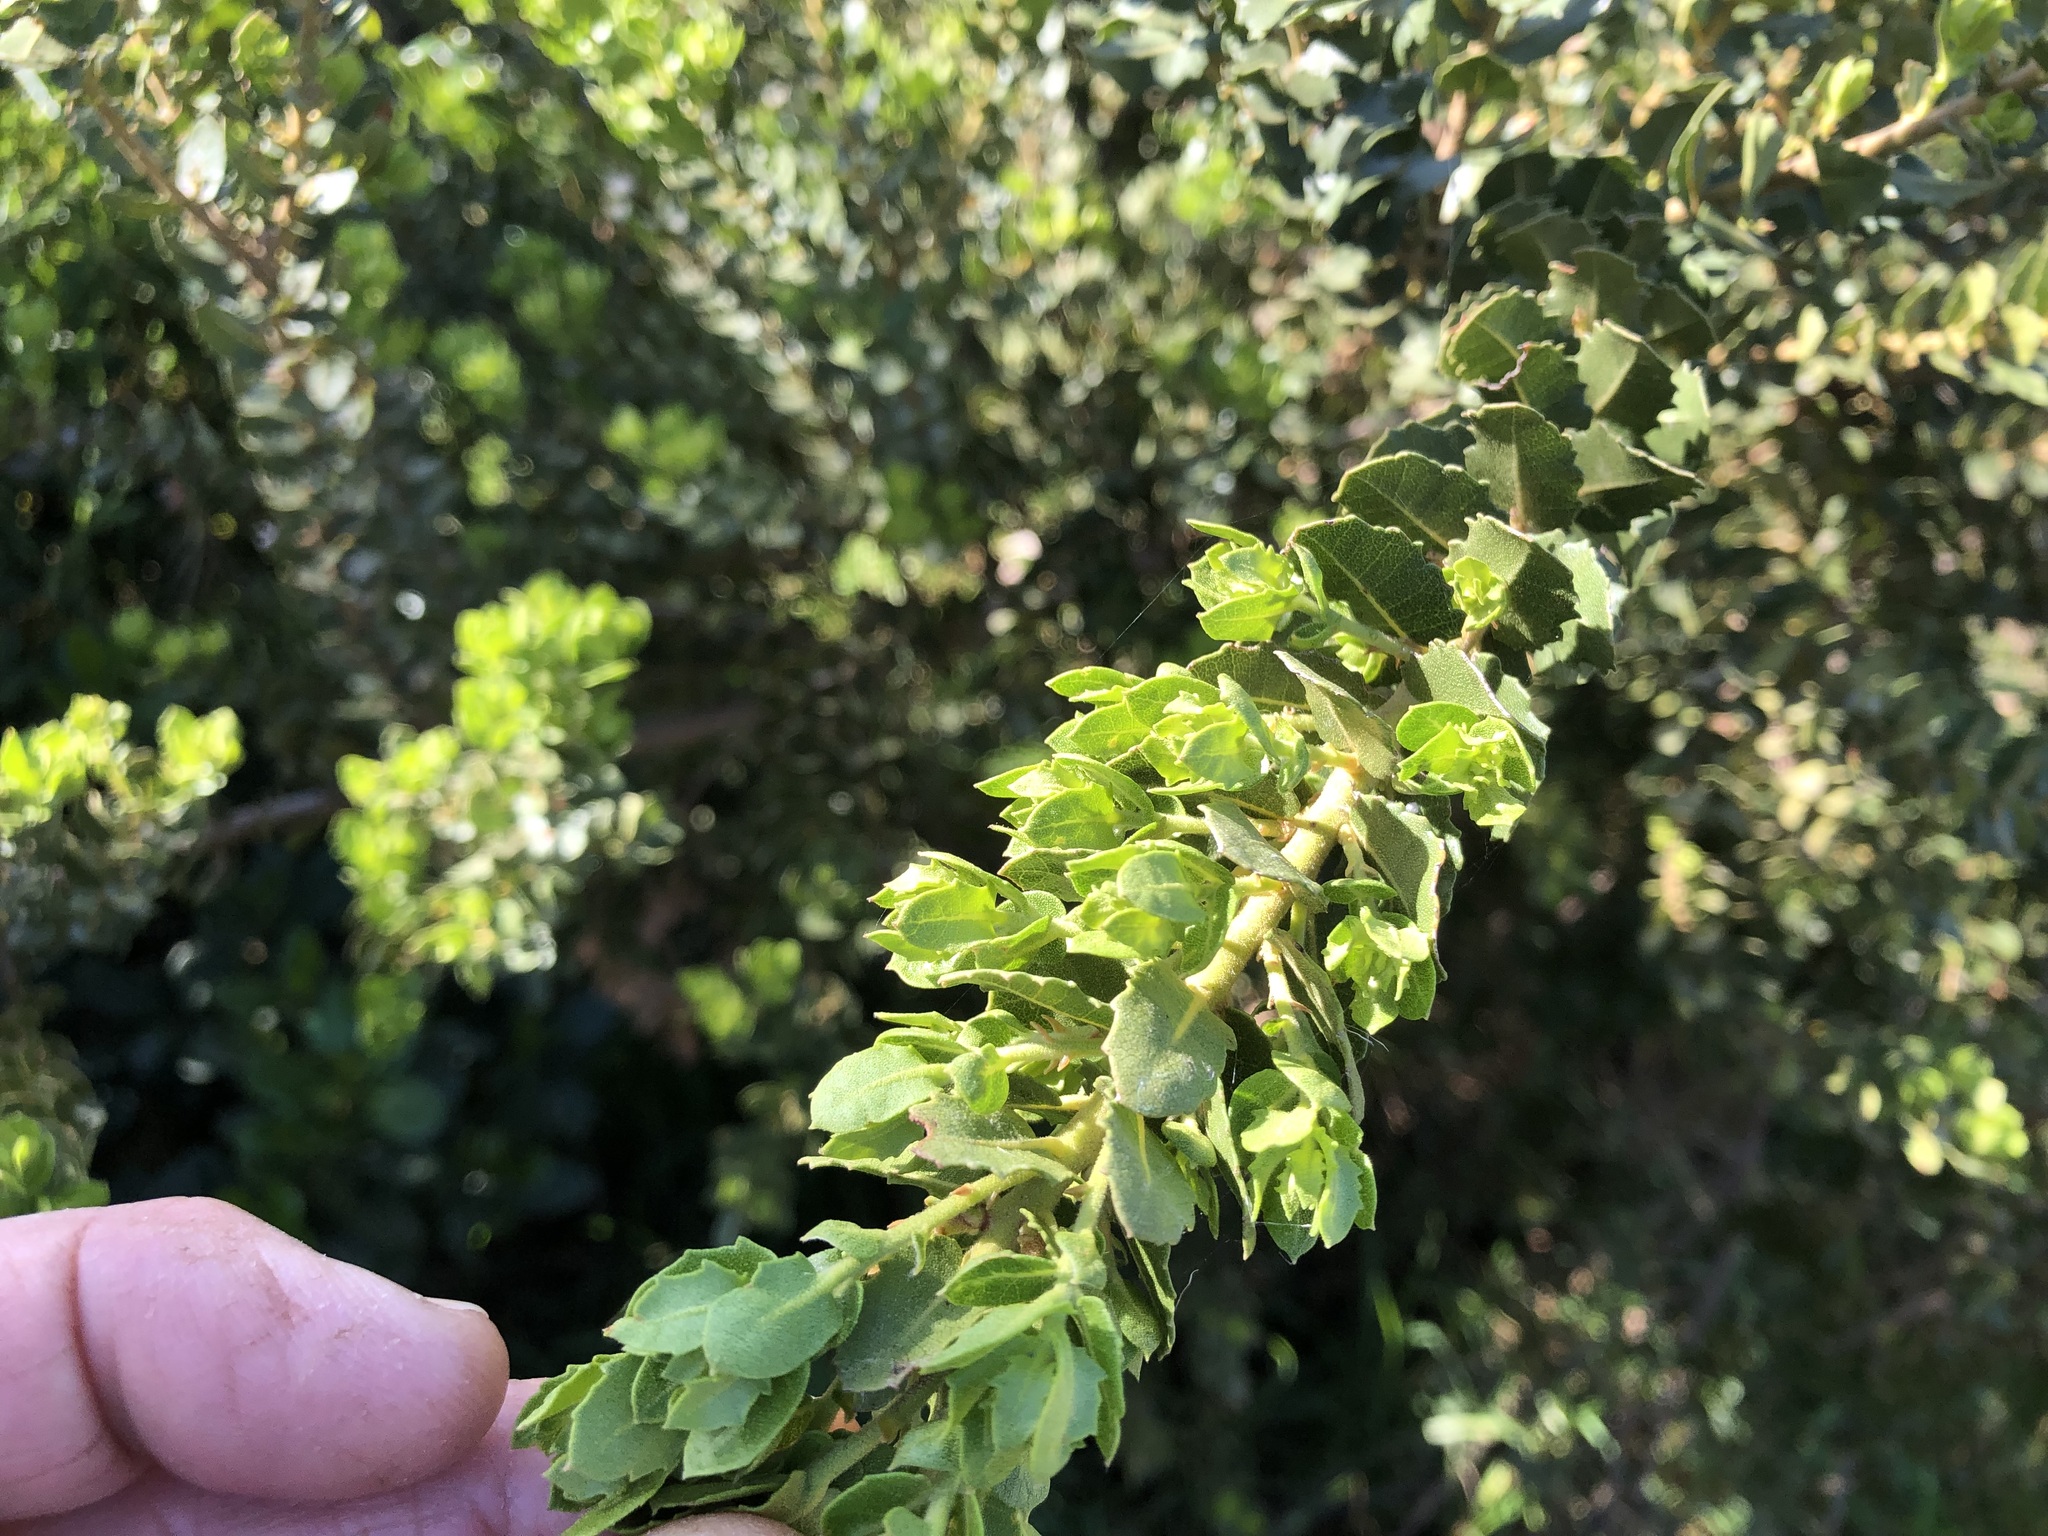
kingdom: Plantae
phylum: Tracheophyta
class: Magnoliopsida
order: Fagales
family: Myricaceae
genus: Morella
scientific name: Morella cordifolia
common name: Waxberry
